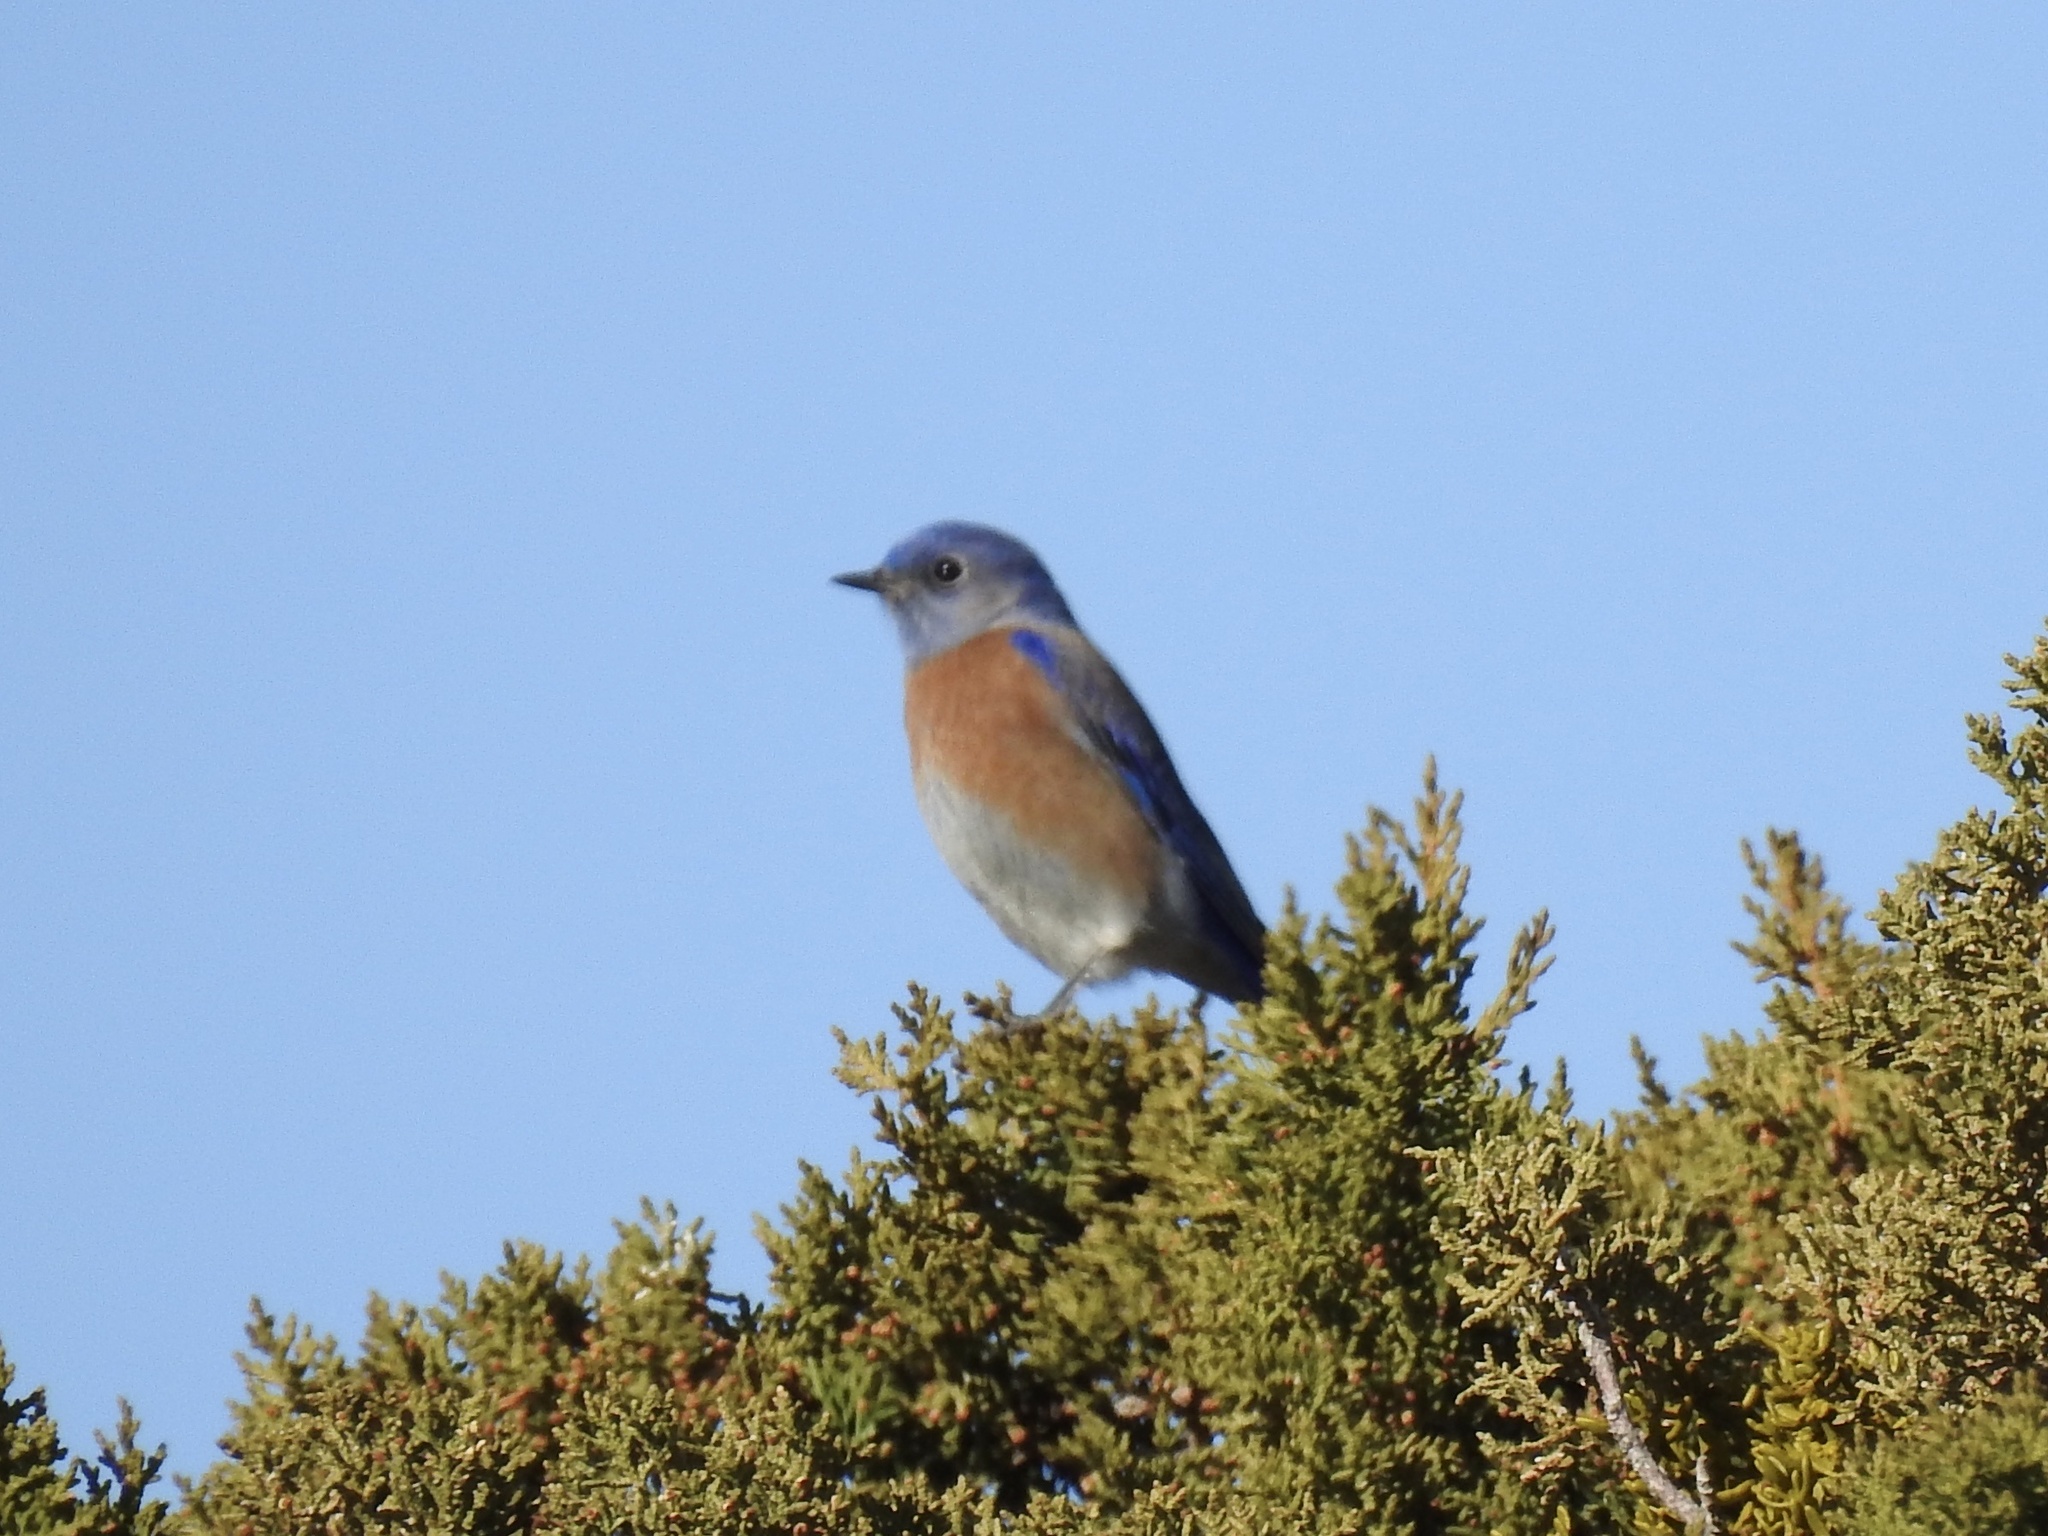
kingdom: Animalia
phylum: Chordata
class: Aves
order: Passeriformes
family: Turdidae
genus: Sialia
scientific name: Sialia mexicana
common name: Western bluebird
